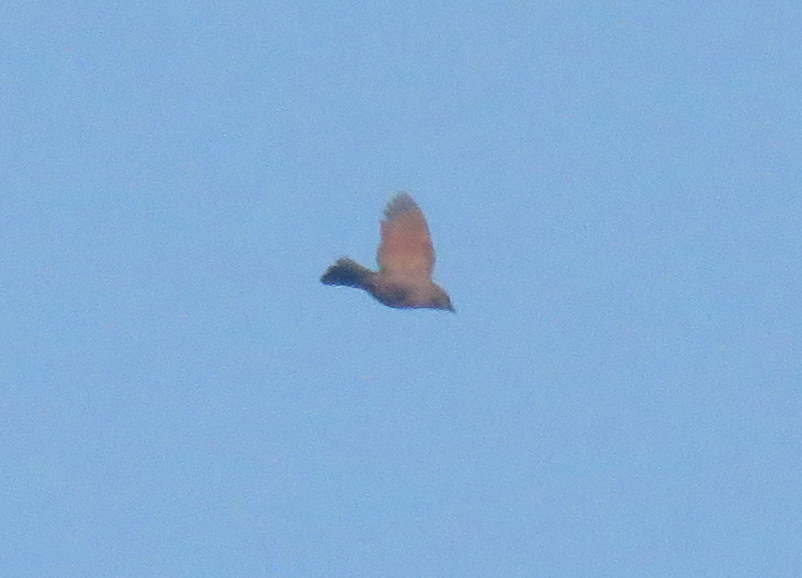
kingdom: Animalia
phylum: Chordata
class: Aves
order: Passeriformes
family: Icteridae
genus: Agelaioides
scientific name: Agelaioides badius
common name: Baywing
